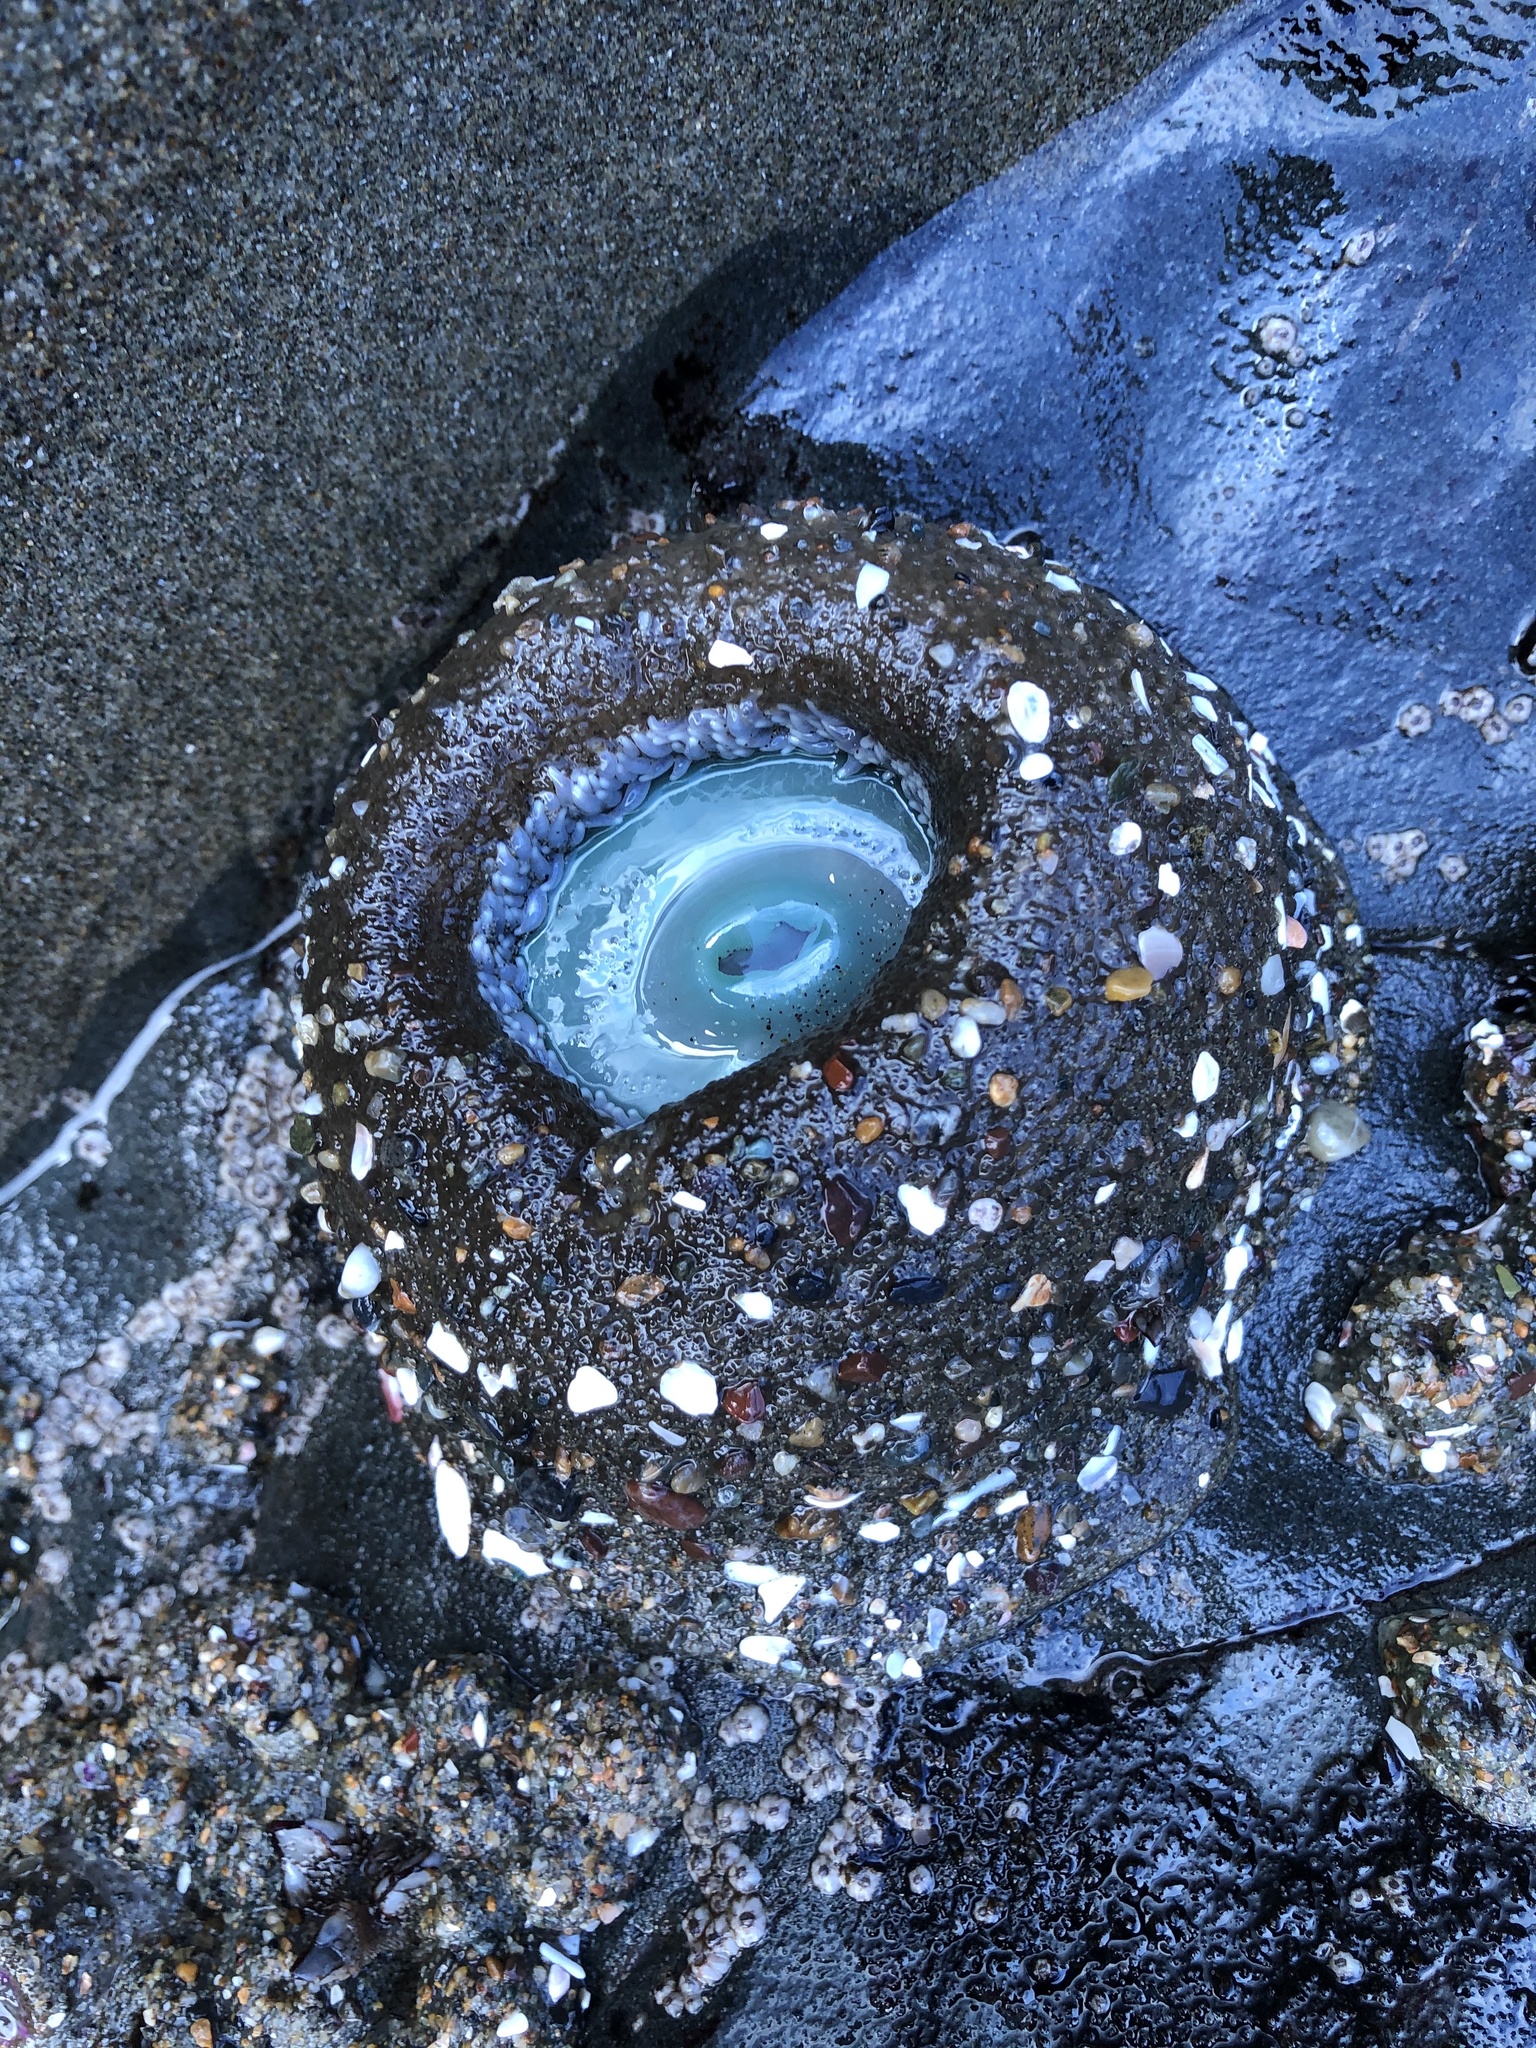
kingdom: Animalia
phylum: Cnidaria
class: Anthozoa
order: Actiniaria
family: Actiniidae
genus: Anthopleura
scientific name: Anthopleura xanthogrammica
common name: Giant green anemone
